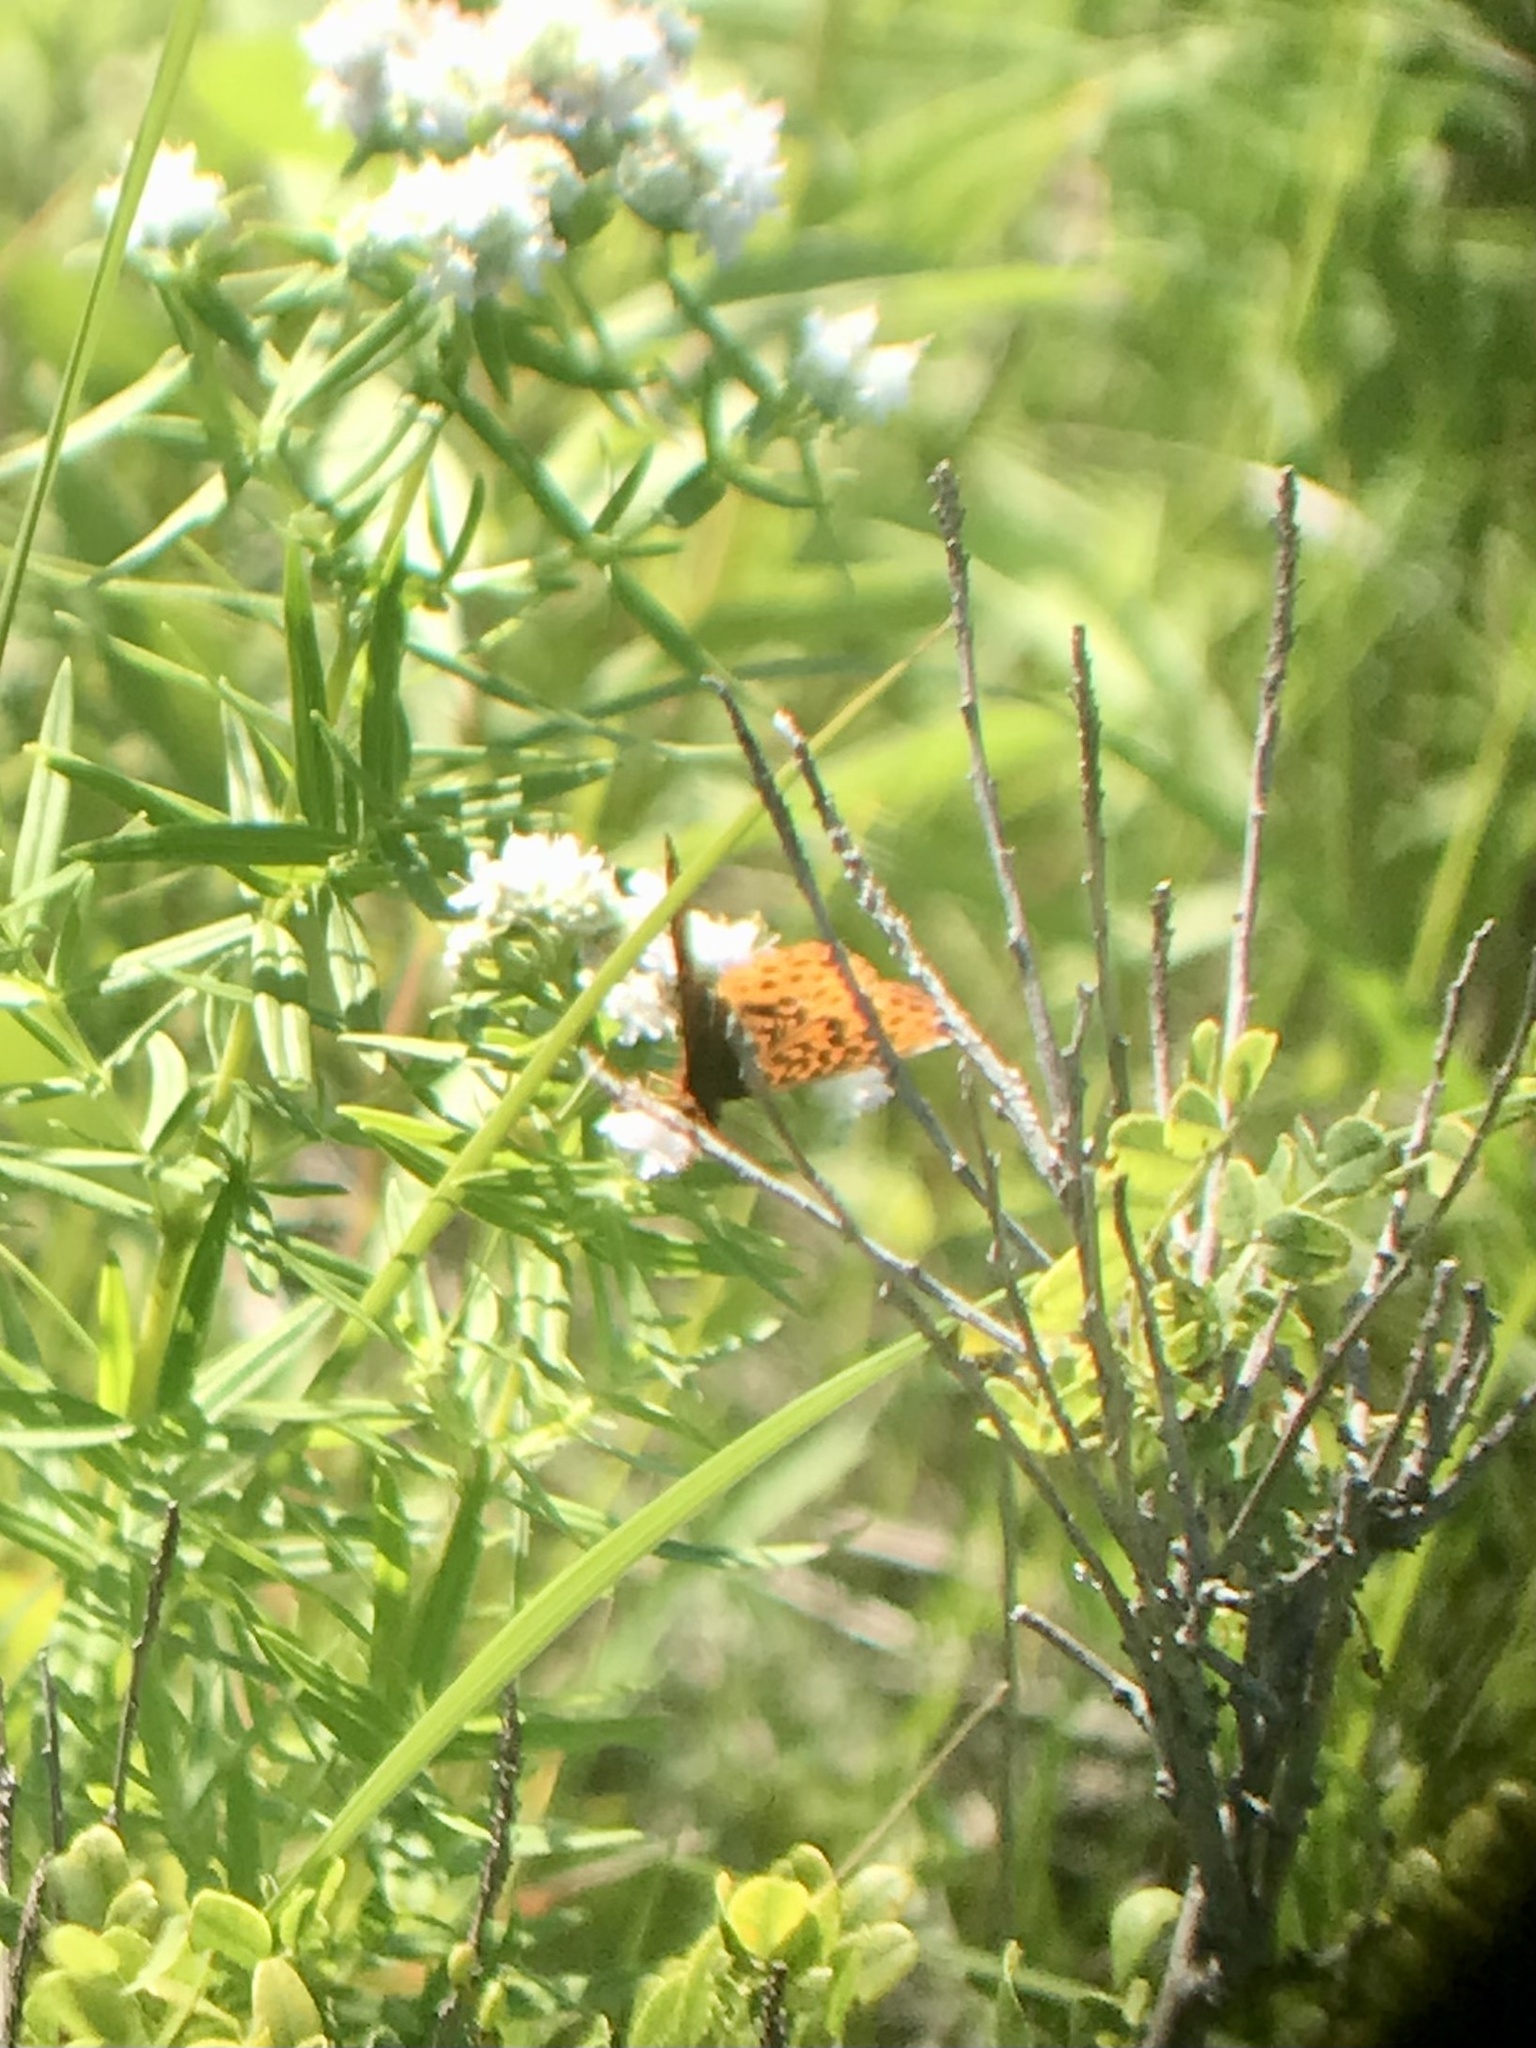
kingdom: Animalia
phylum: Arthropoda
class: Insecta
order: Lepidoptera
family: Nymphalidae
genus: Clossiana
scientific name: Clossiana toddi
